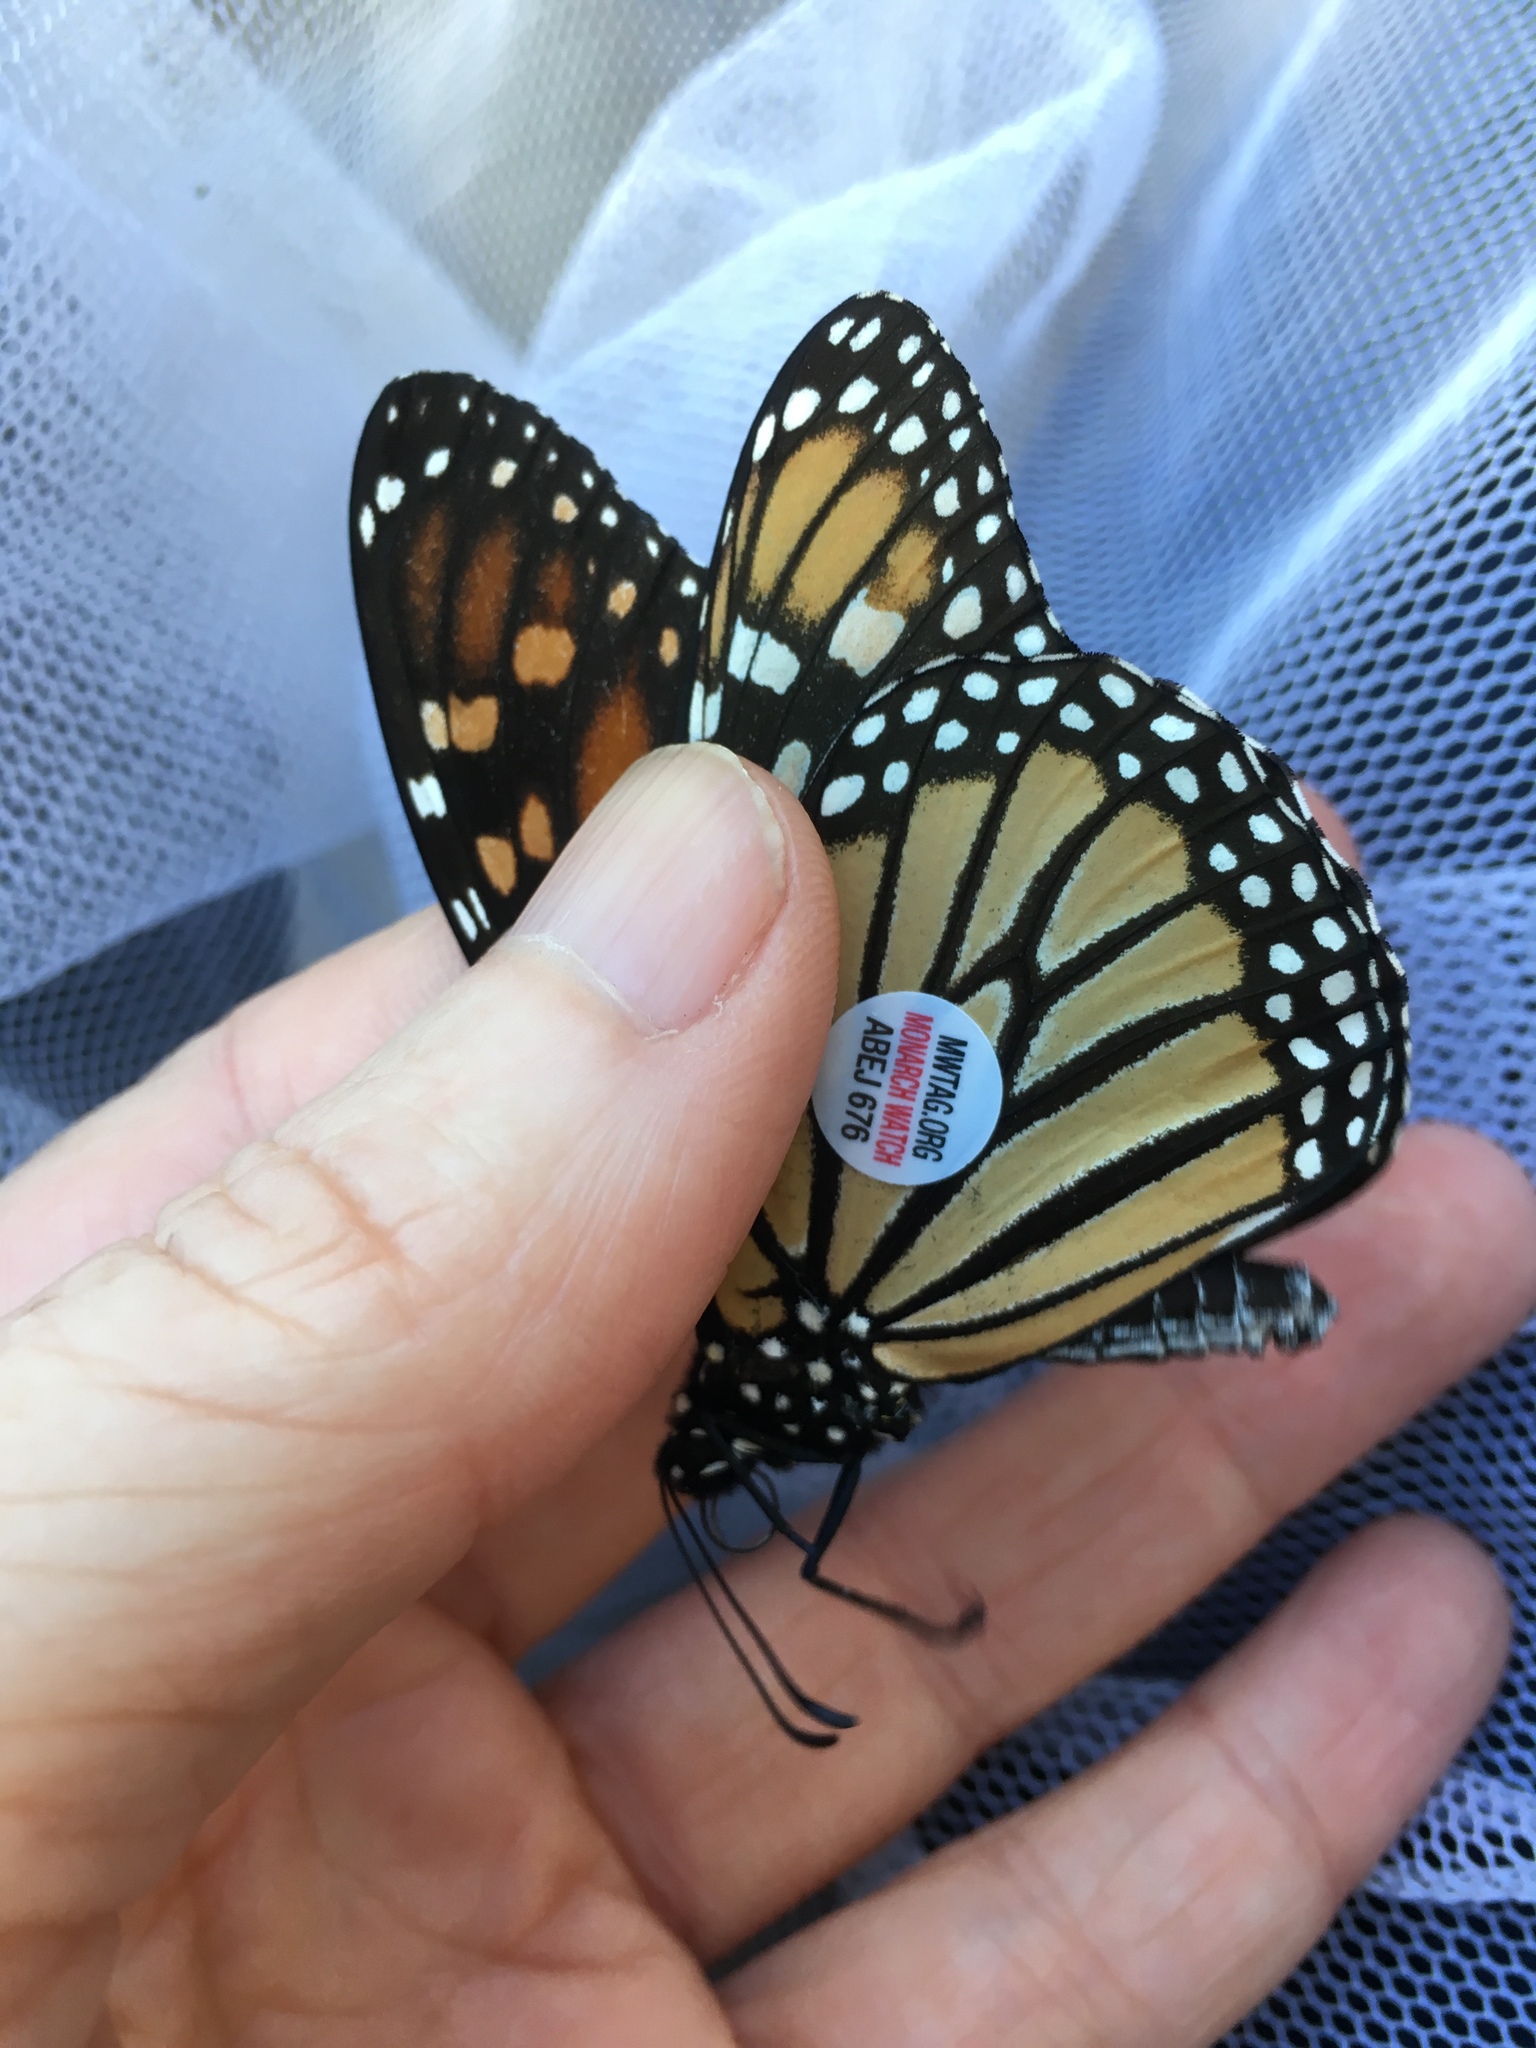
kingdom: Animalia
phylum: Arthropoda
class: Insecta
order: Lepidoptera
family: Nymphalidae
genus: Danaus
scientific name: Danaus plexippus
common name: Monarch
